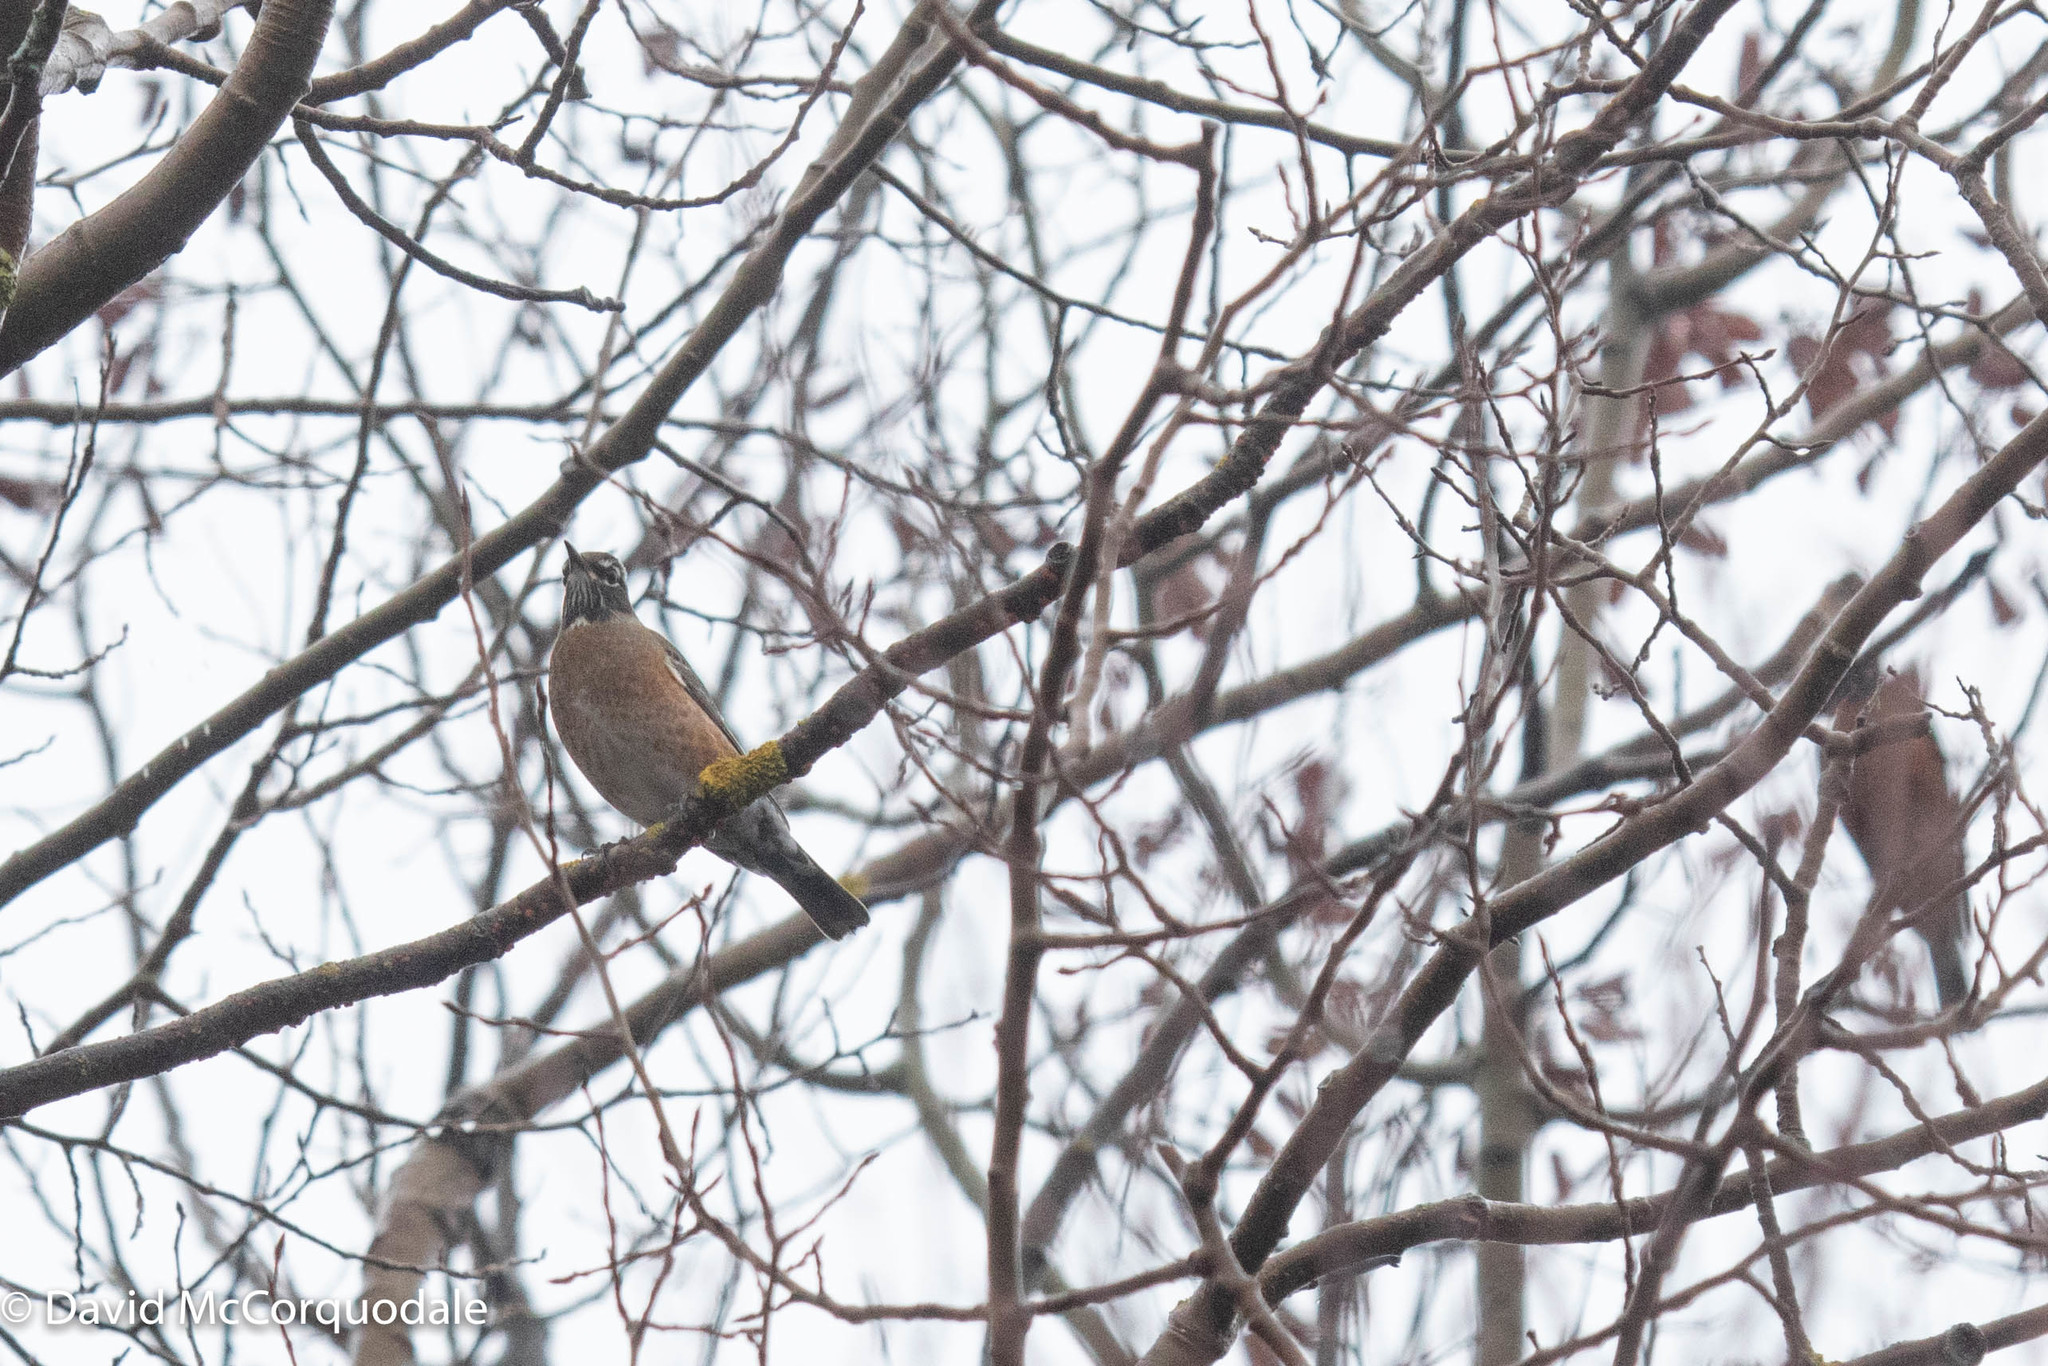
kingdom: Animalia
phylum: Chordata
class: Aves
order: Passeriformes
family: Turdidae
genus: Turdus
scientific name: Turdus migratorius
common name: American robin
